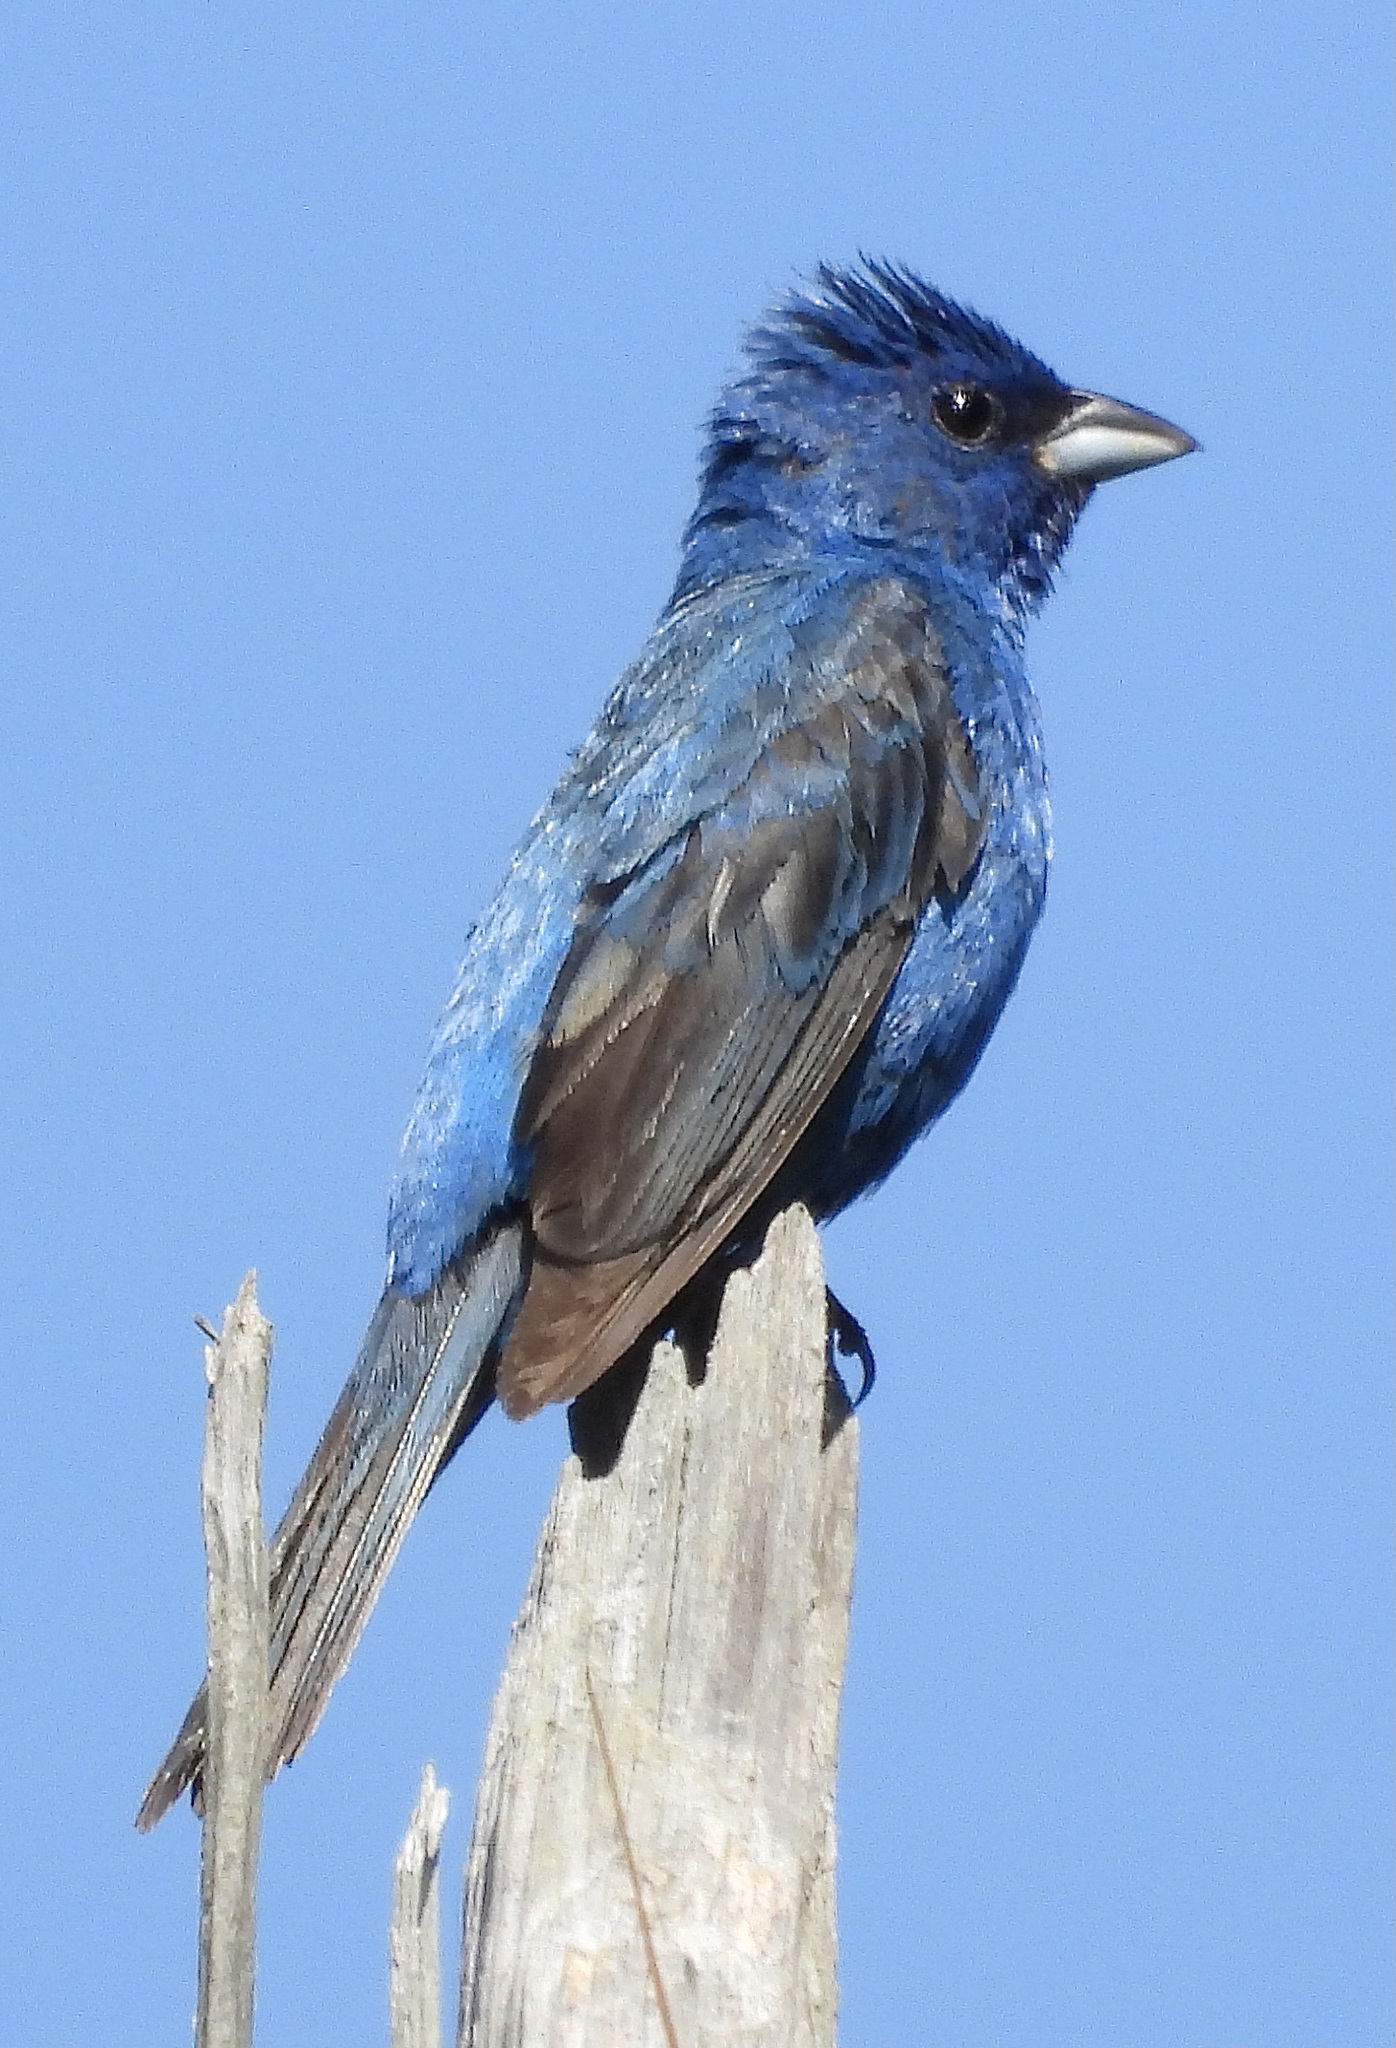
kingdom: Animalia
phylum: Chordata
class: Aves
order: Passeriformes
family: Cardinalidae
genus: Passerina
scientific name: Passerina cyanea
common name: Indigo bunting
